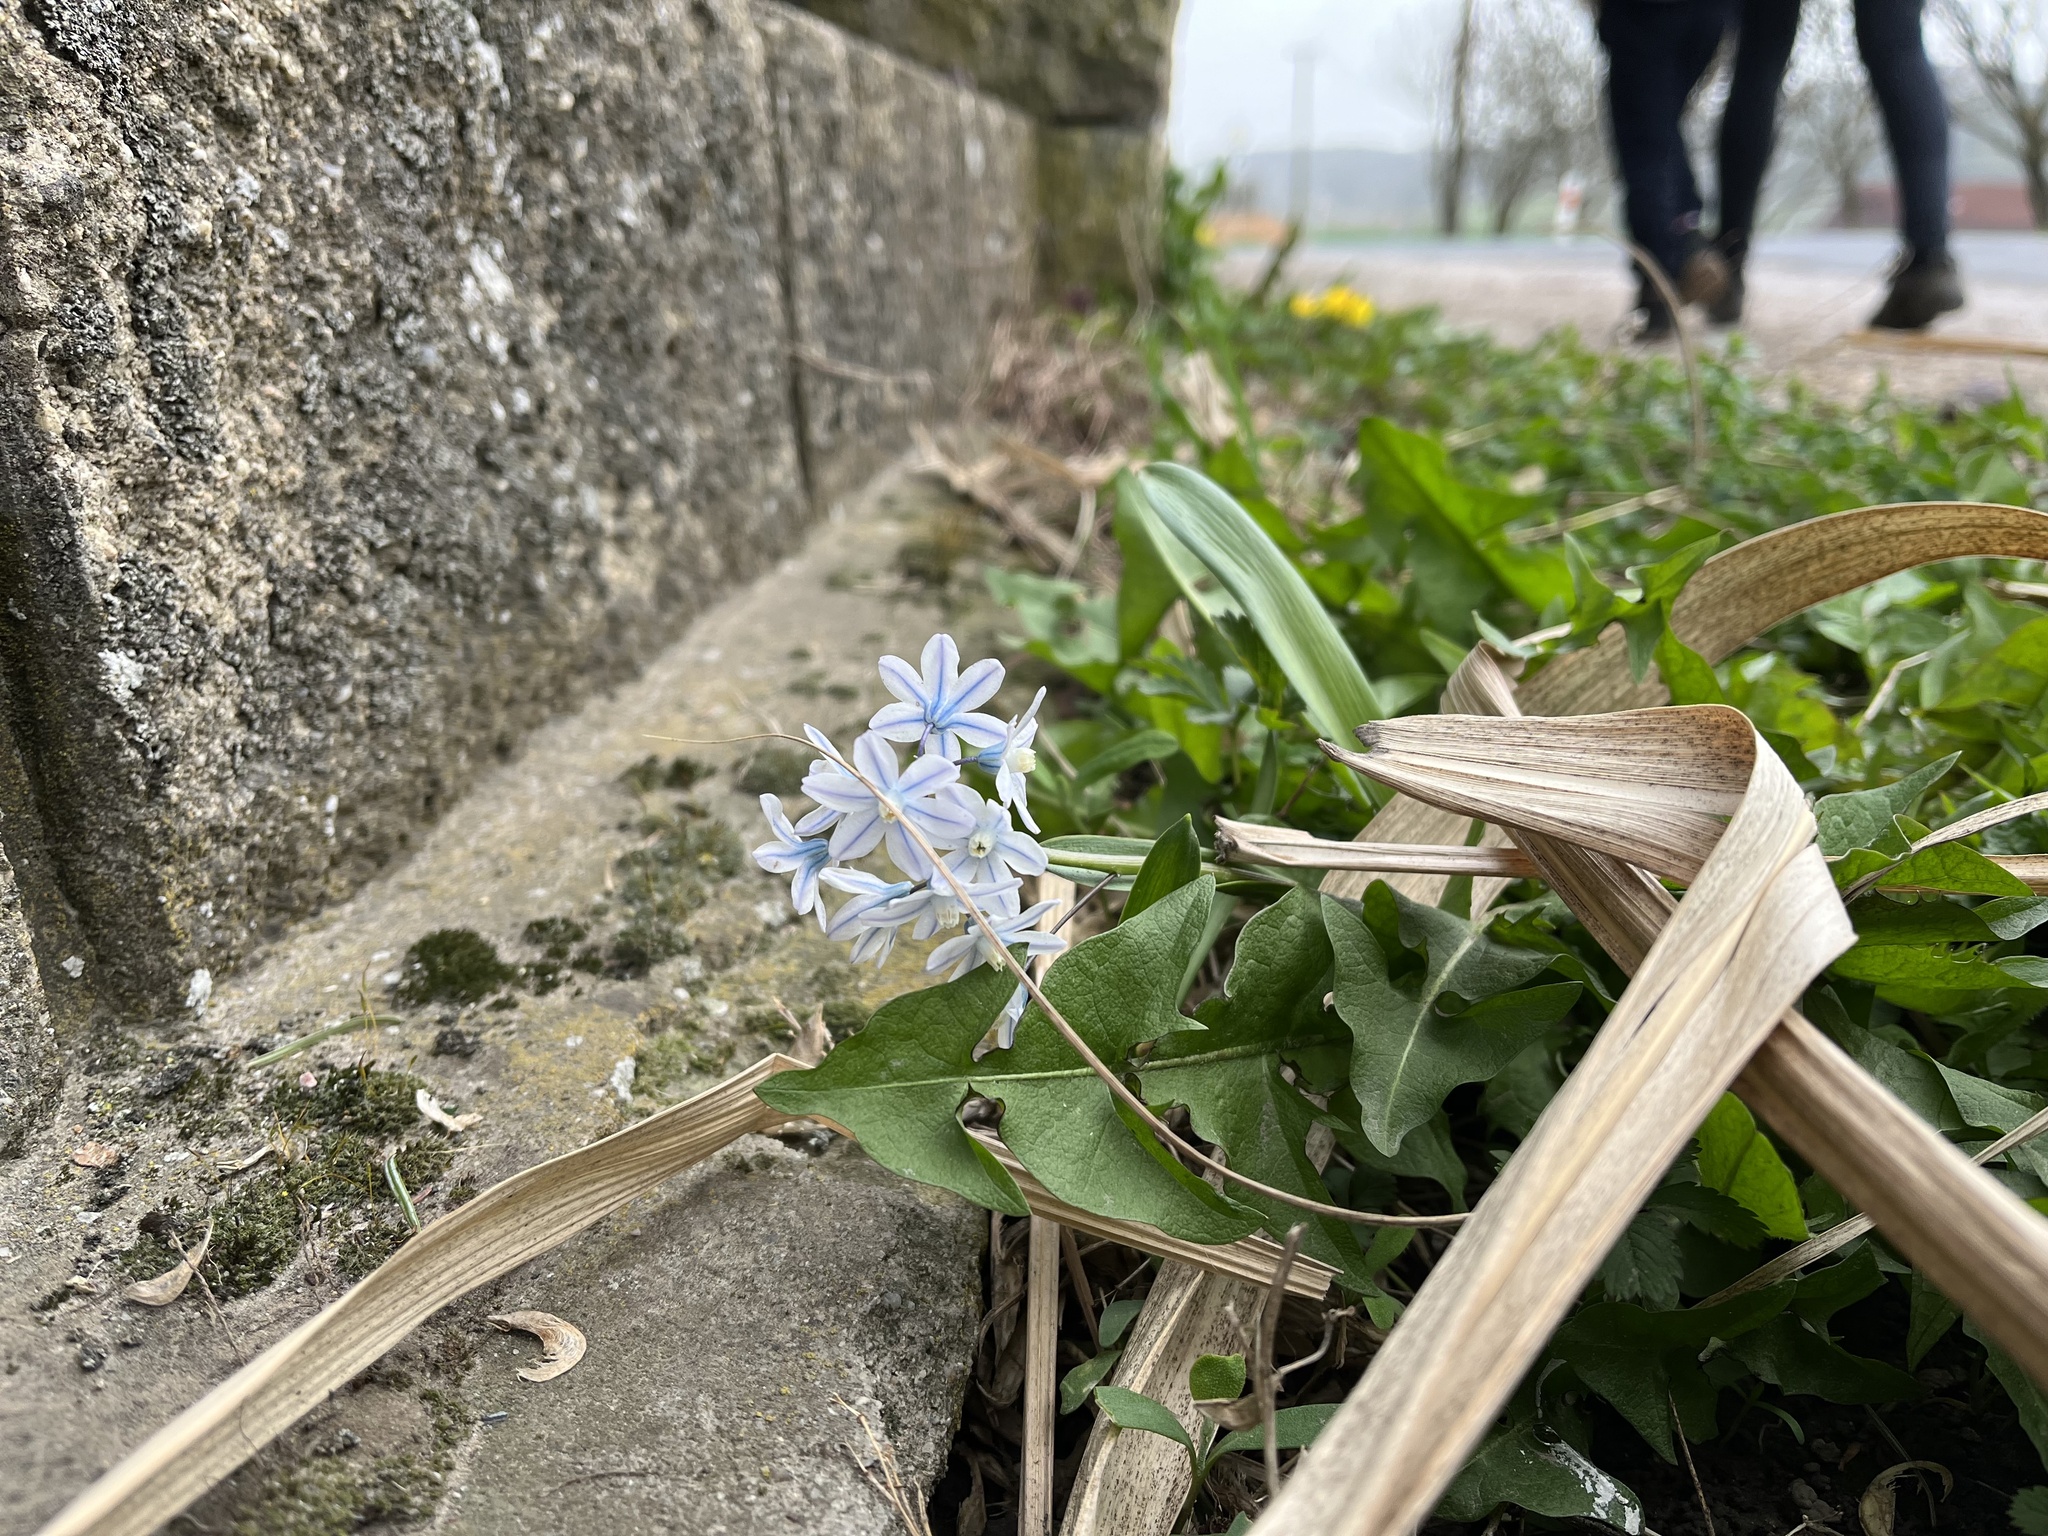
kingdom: Plantae
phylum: Tracheophyta
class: Liliopsida
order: Asparagales
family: Asparagaceae
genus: Puschkinia
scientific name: Puschkinia scilloides
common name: Striped squill
